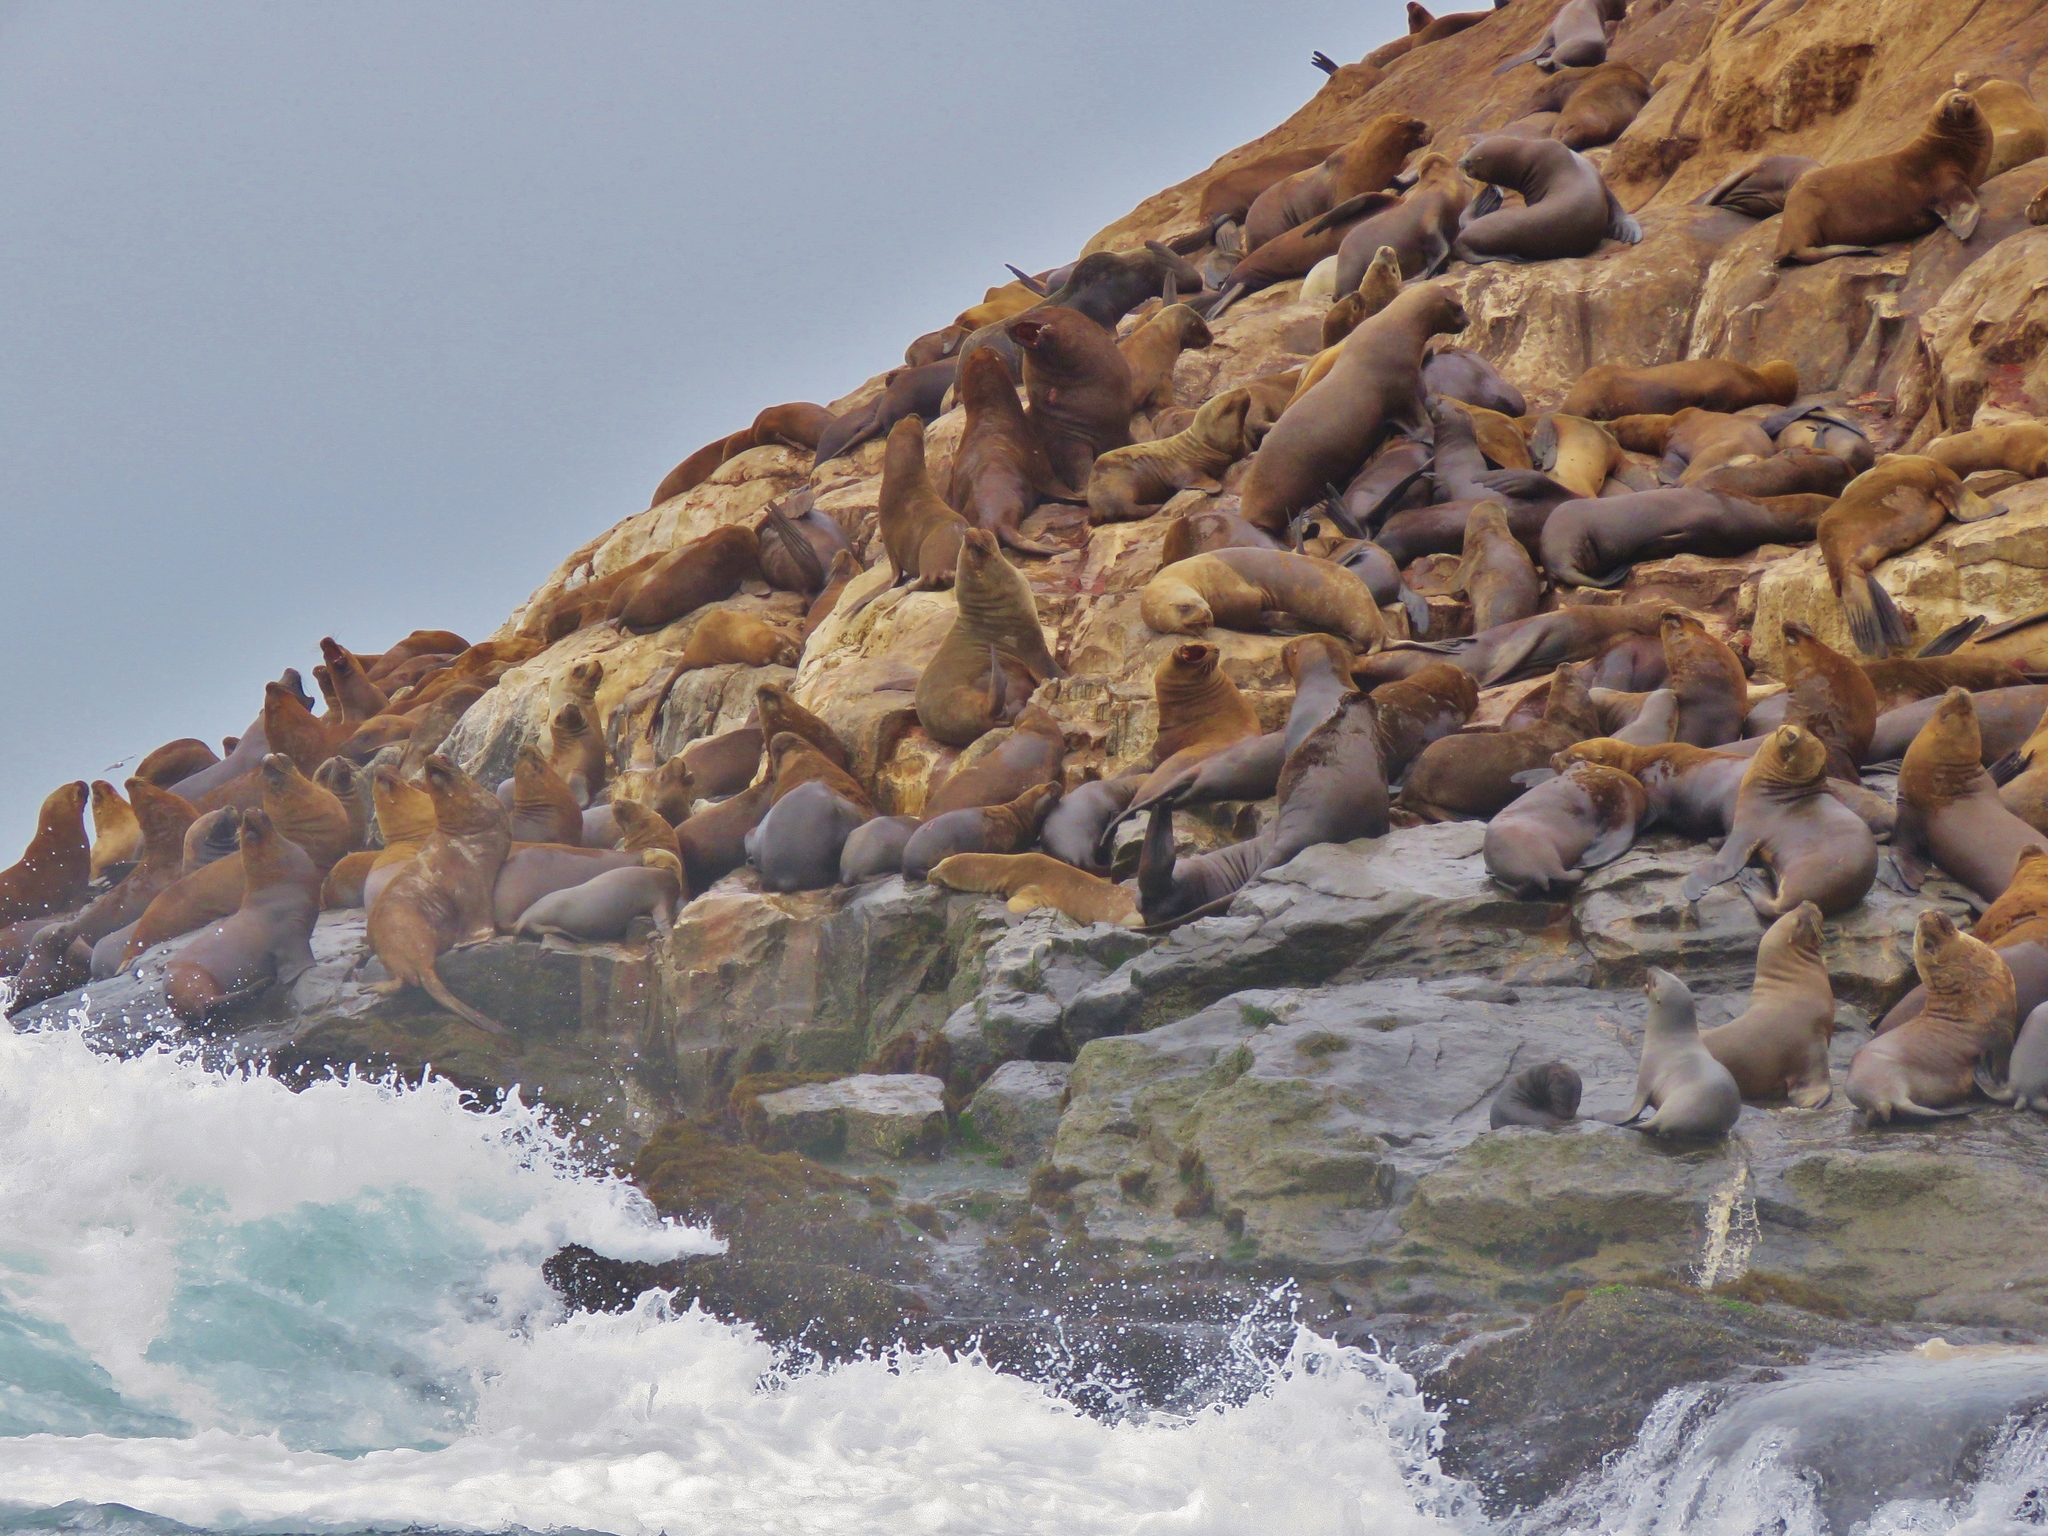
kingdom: Animalia
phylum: Chordata
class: Mammalia
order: Carnivora
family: Otariidae
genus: Otaria
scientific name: Otaria byronia
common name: South american sea lion
